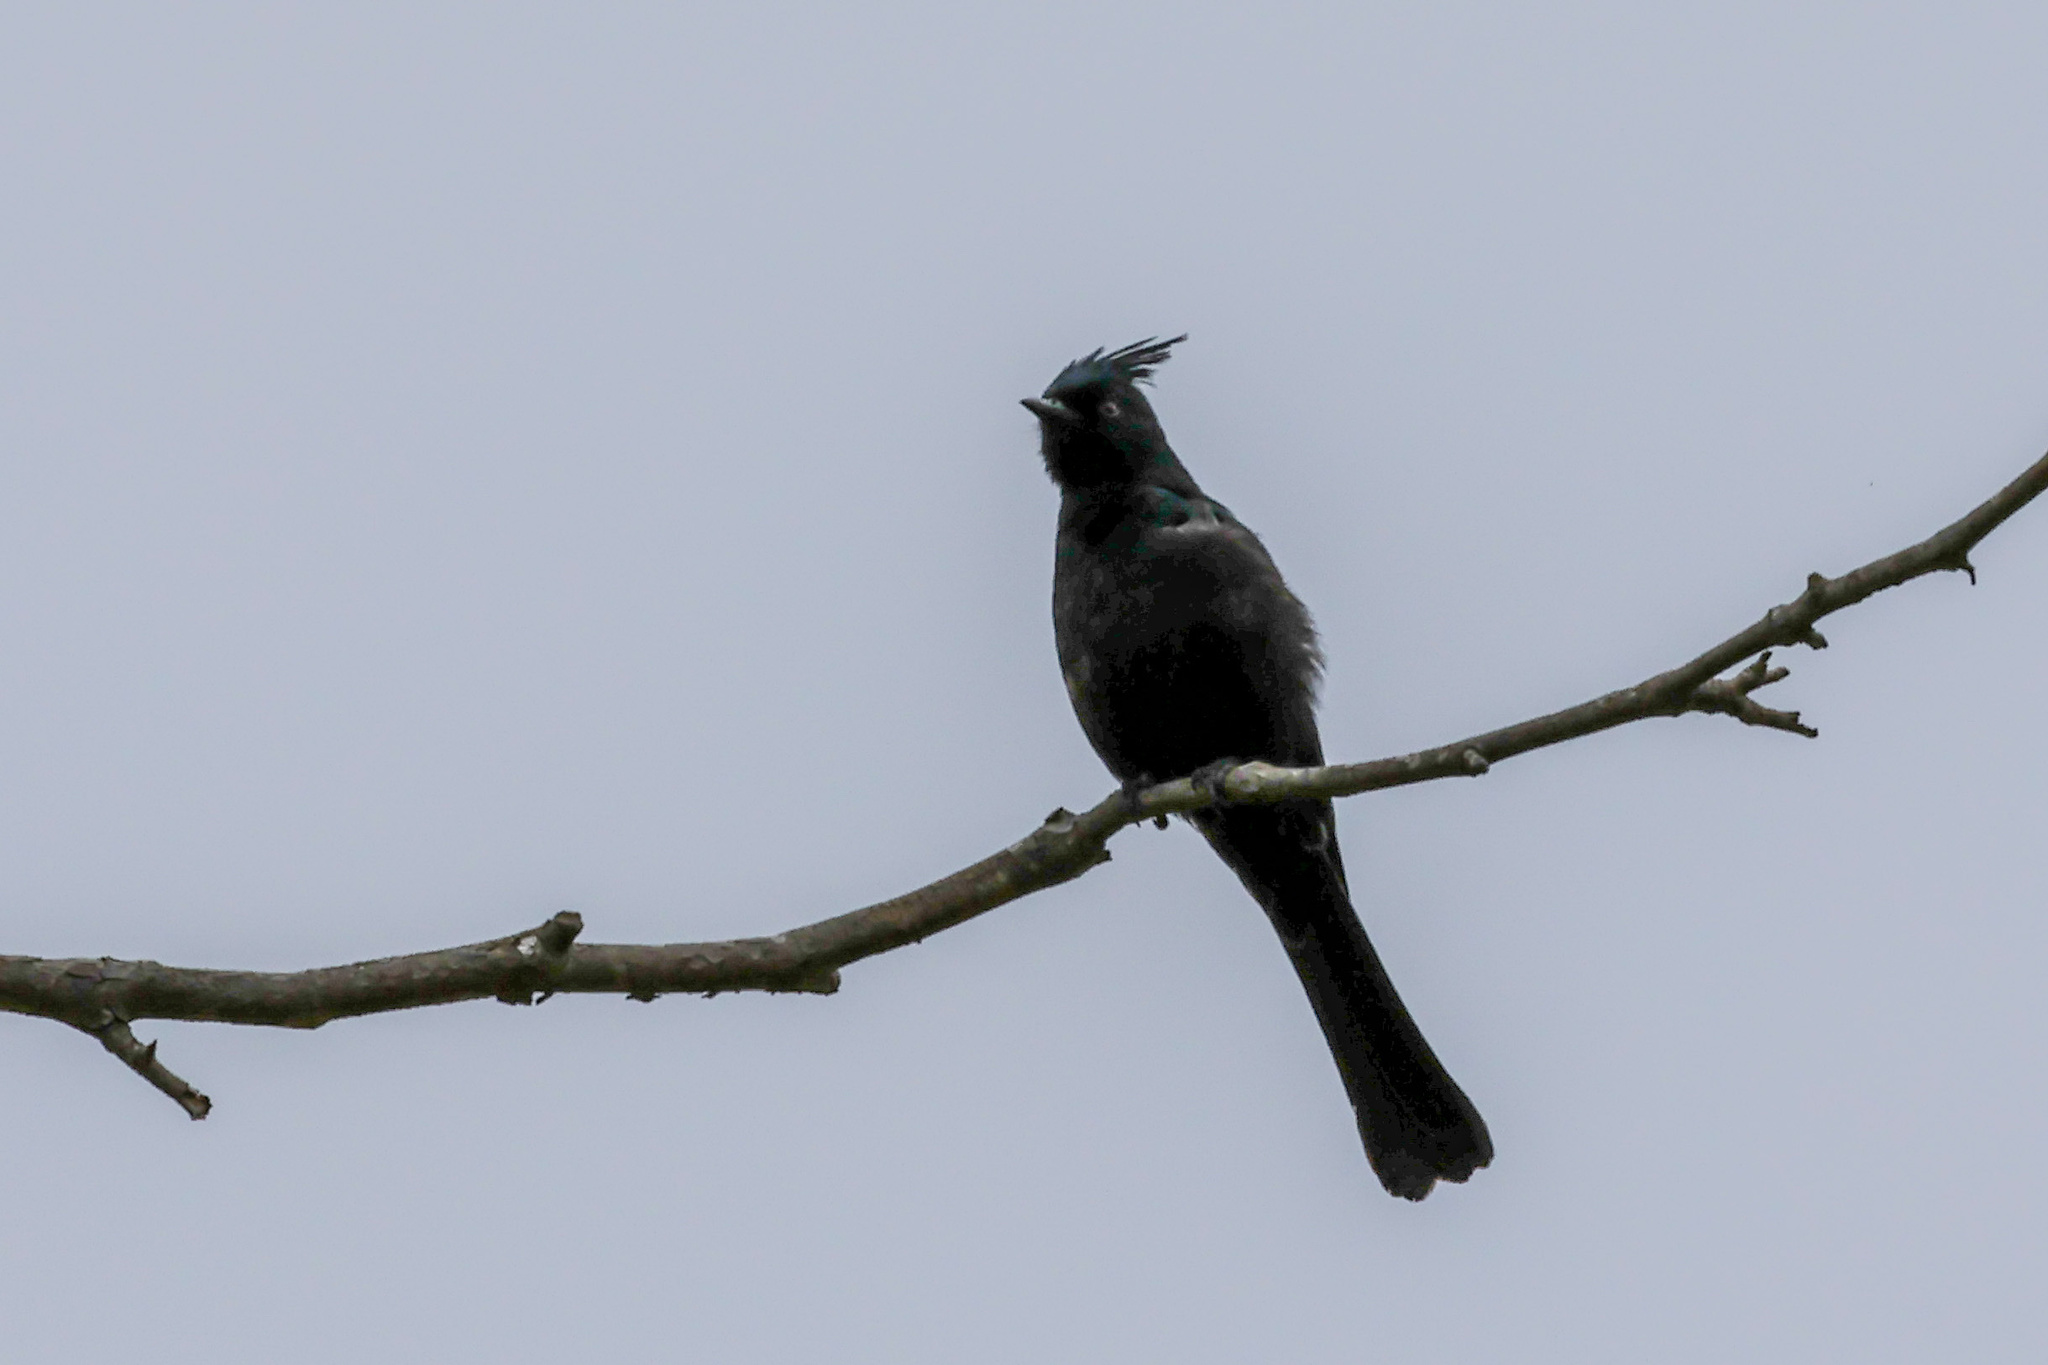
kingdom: Animalia
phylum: Chordata
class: Aves
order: Passeriformes
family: Ptilogonatidae
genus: Phainopepla
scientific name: Phainopepla nitens
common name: Phainopepla
